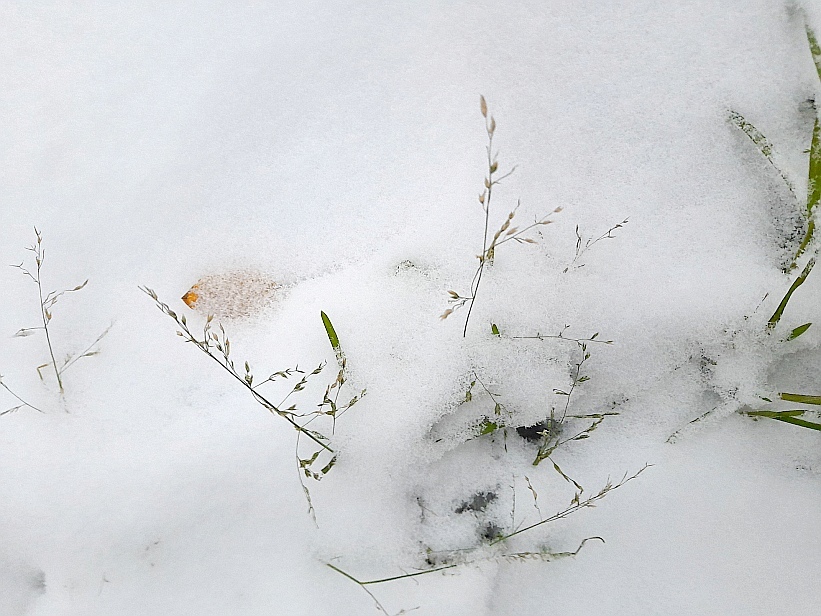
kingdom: Plantae
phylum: Tracheophyta
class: Liliopsida
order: Poales
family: Poaceae
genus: Poa
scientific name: Poa annua
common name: Annual bluegrass
